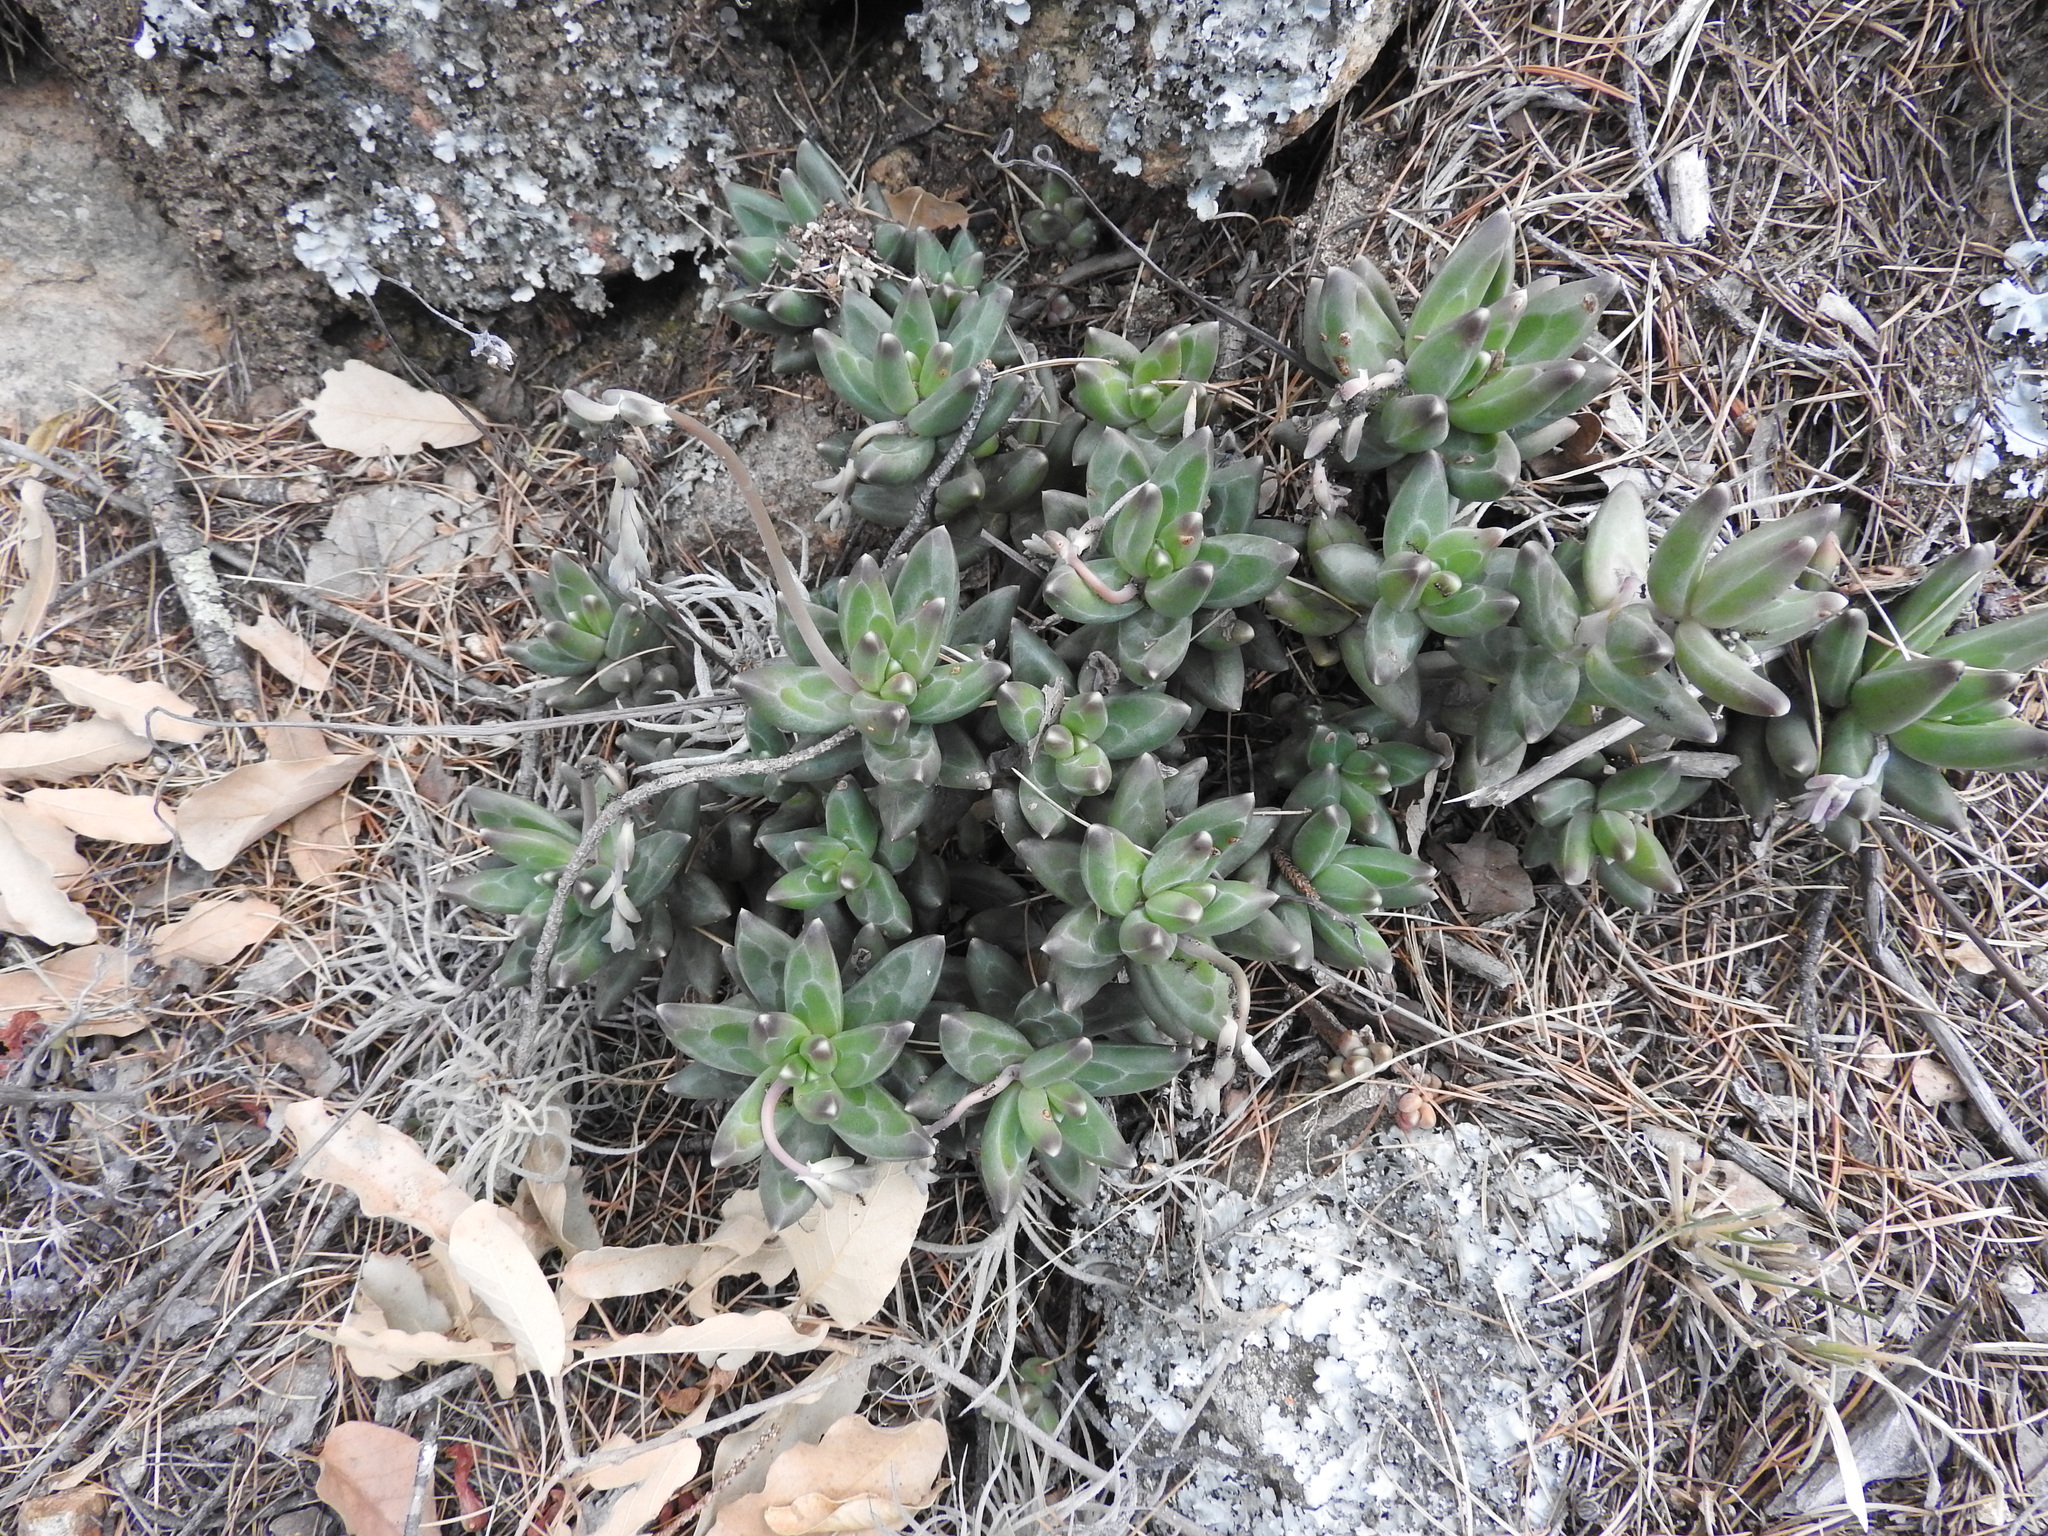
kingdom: Plantae
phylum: Tracheophyta
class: Magnoliopsida
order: Saxifragales
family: Crassulaceae
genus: Pachyphytum
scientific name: Pachyphytum compactum
